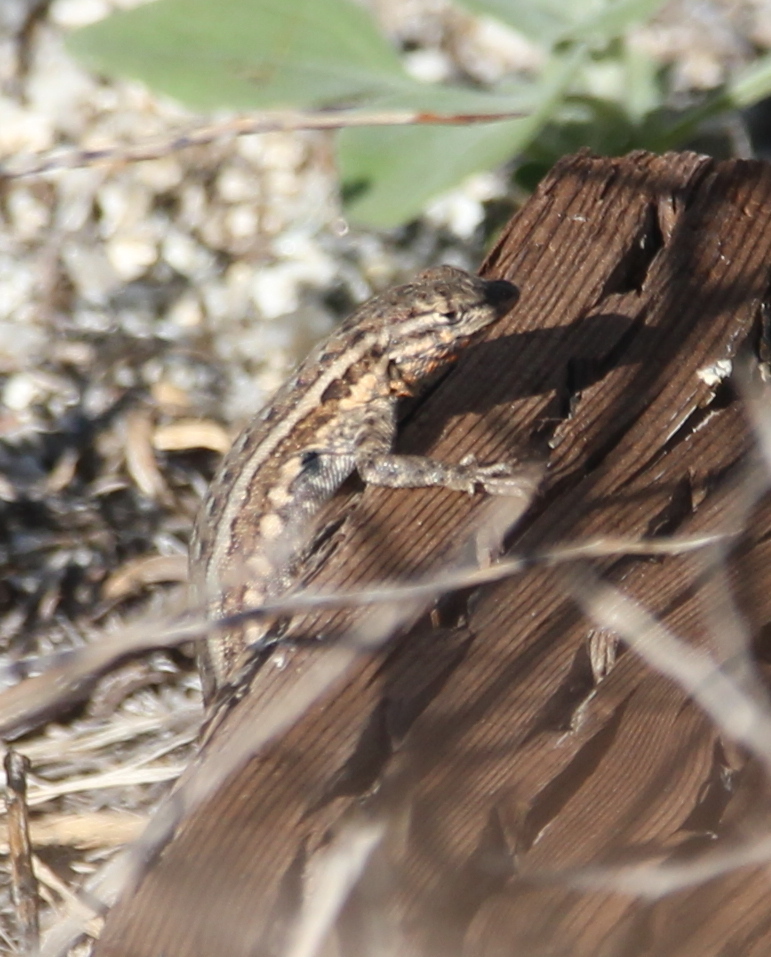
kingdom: Animalia
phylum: Chordata
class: Squamata
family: Phrynosomatidae
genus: Uta
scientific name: Uta stansburiana
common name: Side-blotched lizard
